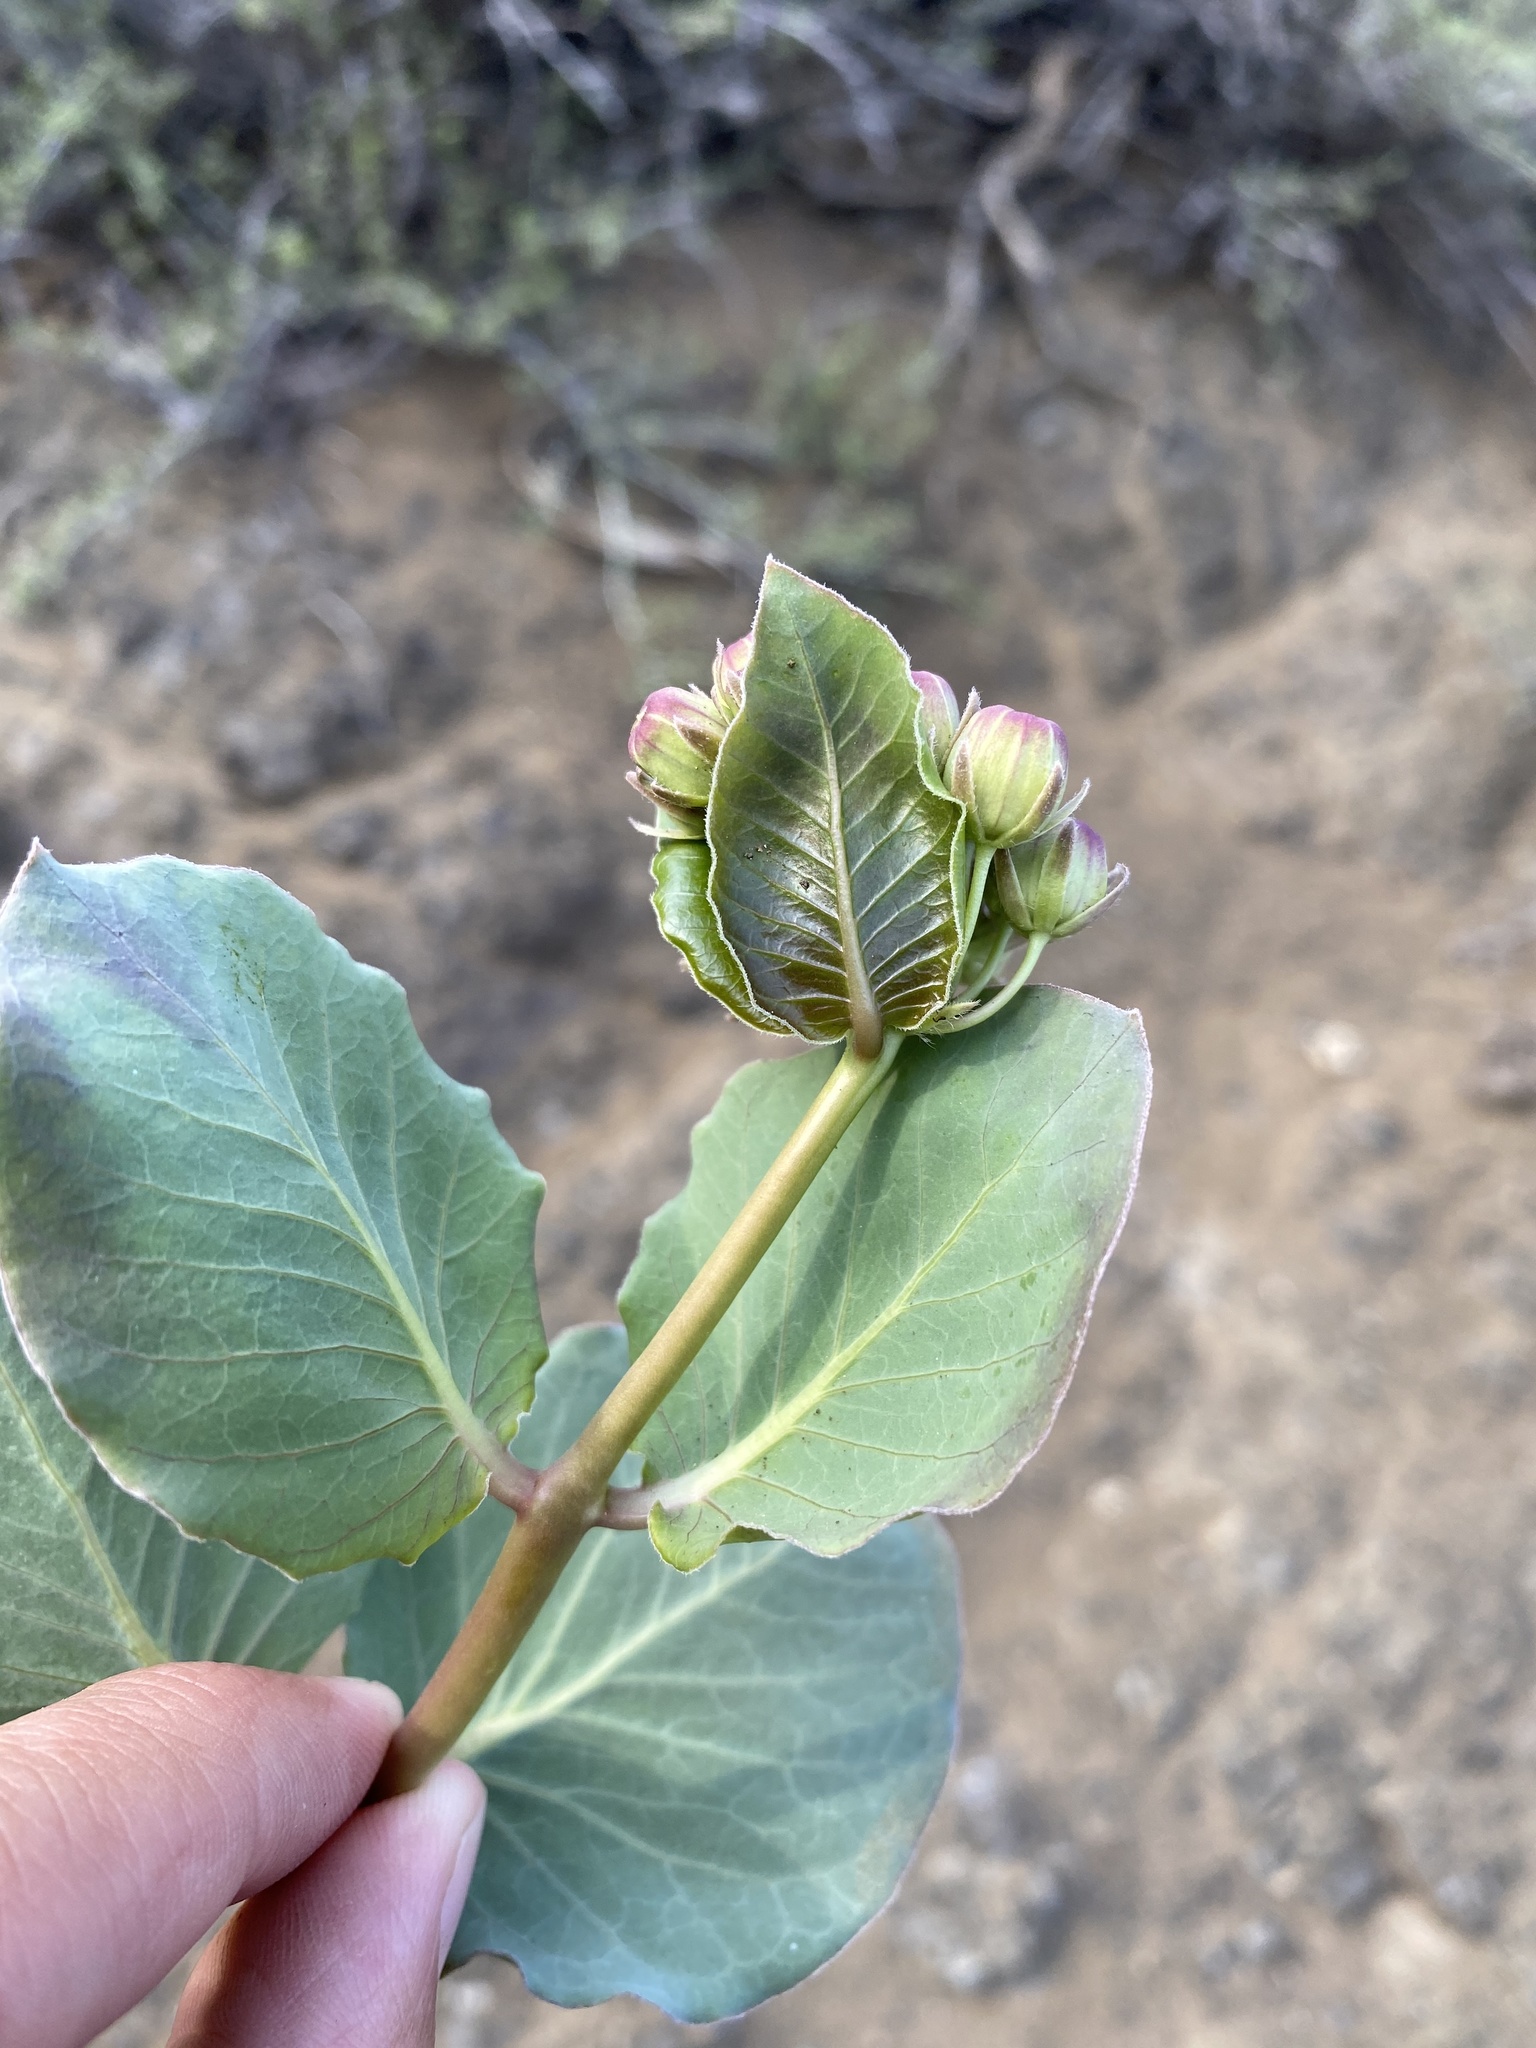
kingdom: Plantae
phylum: Tracheophyta
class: Magnoliopsida
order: Gentianales
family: Apocynaceae
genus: Asclepias
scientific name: Asclepias cryptoceras
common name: Humboldt mountains milkweed
